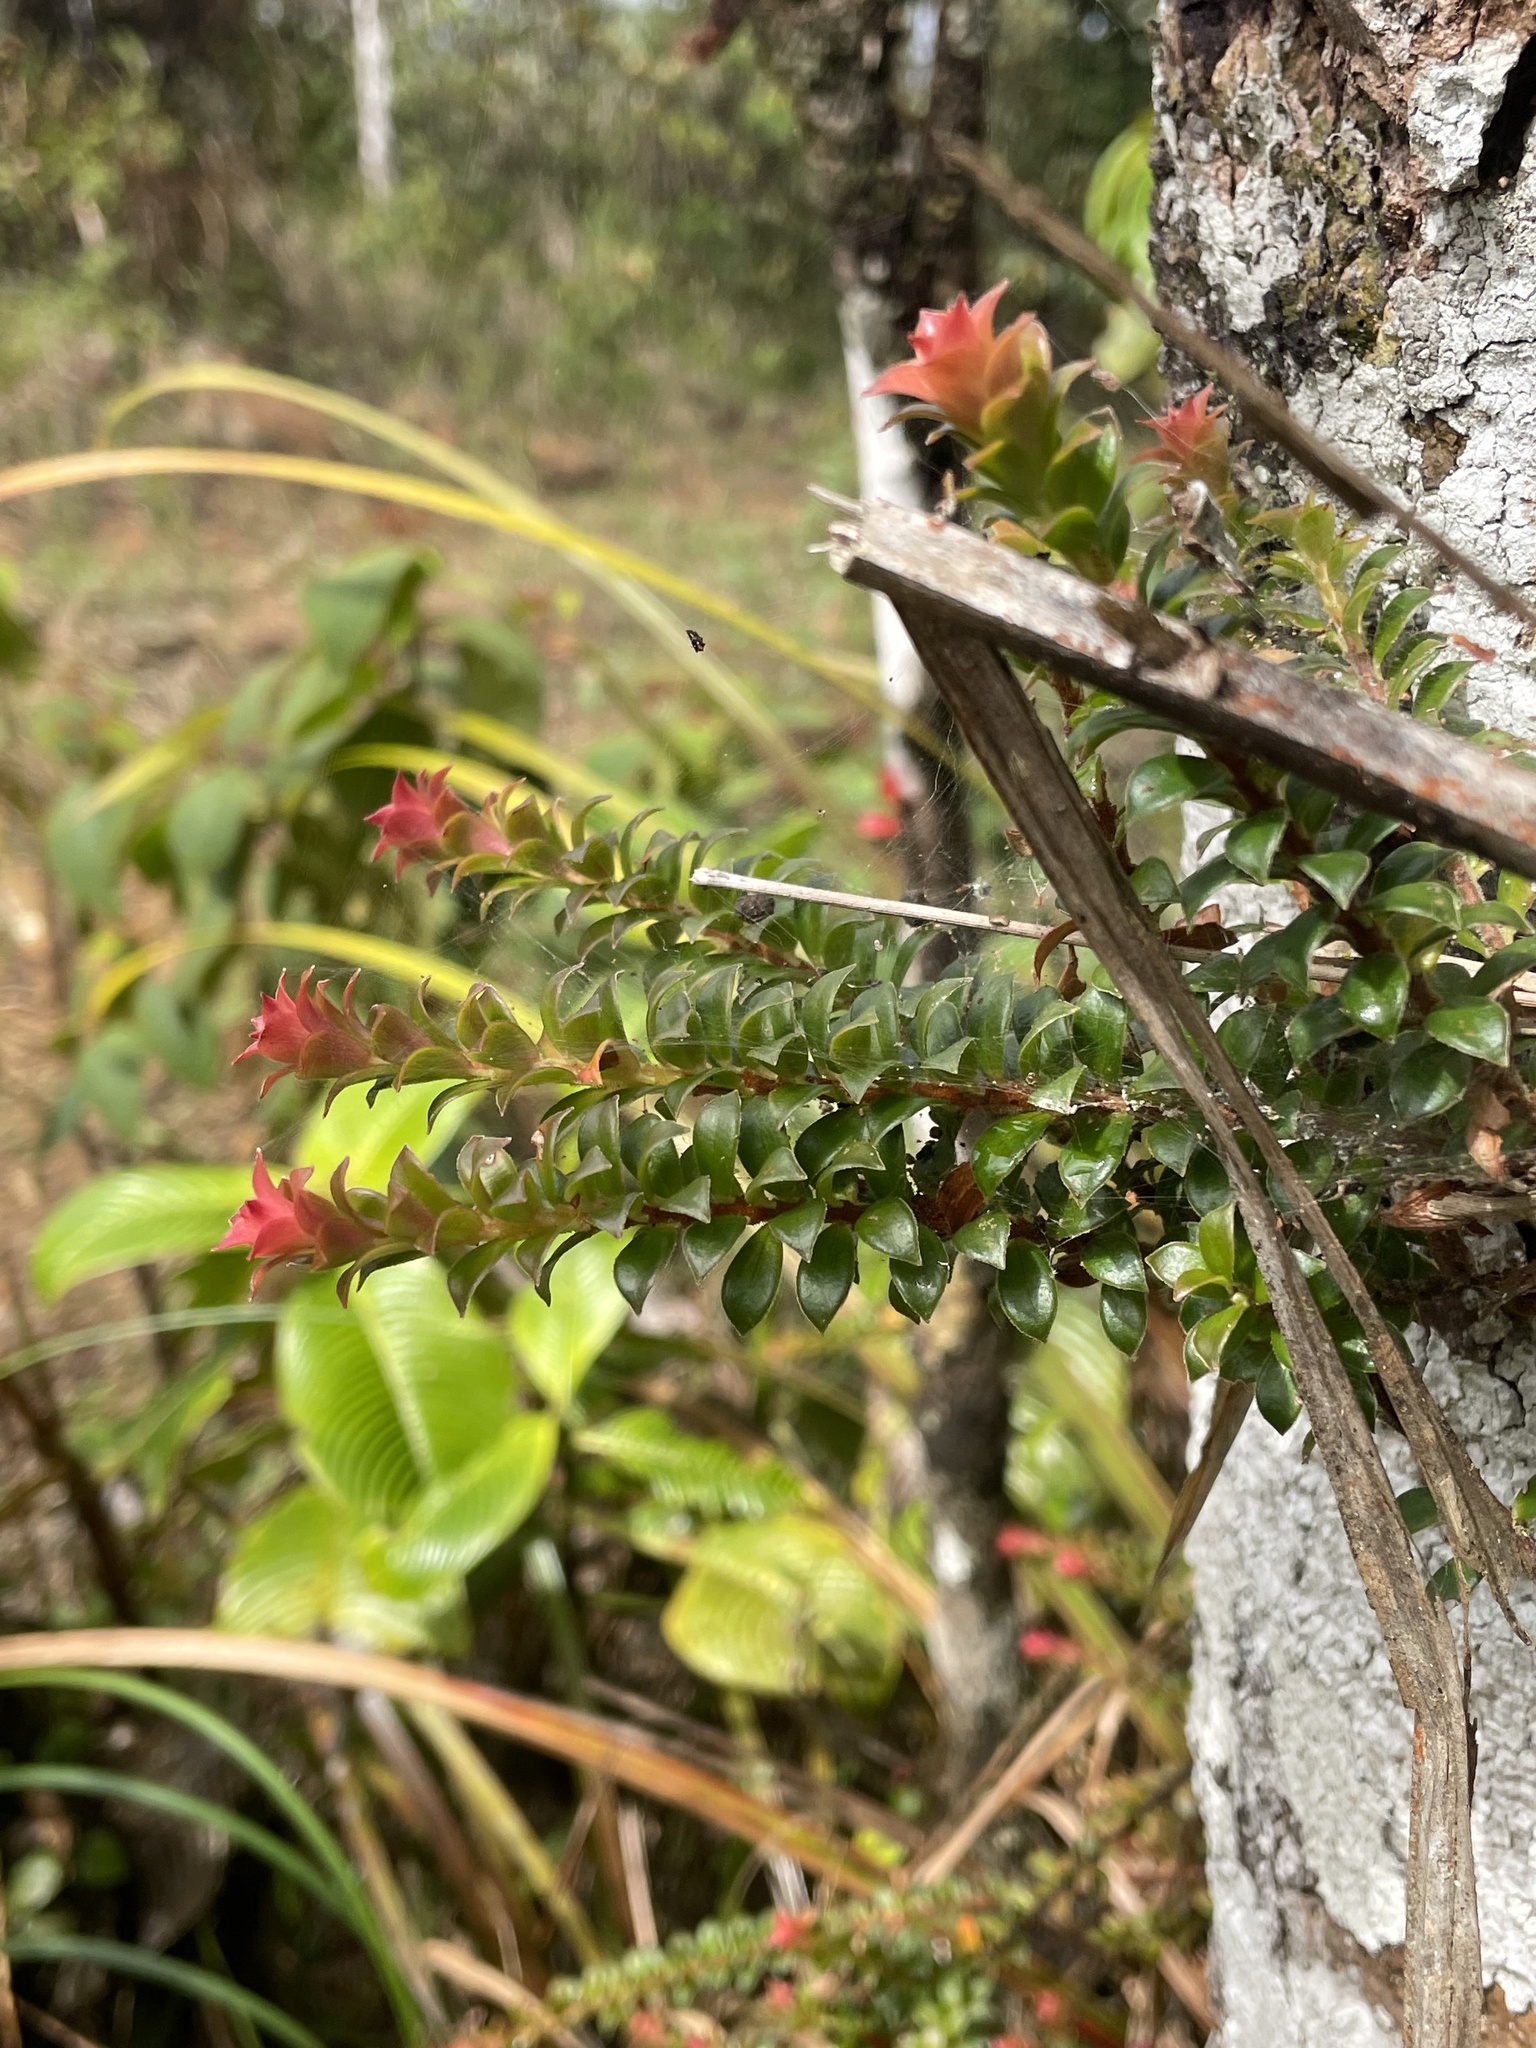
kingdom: Plantae
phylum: Tracheophyta
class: Magnoliopsida
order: Ericales
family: Ericaceae
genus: Disterigma
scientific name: Disterigma panamense
